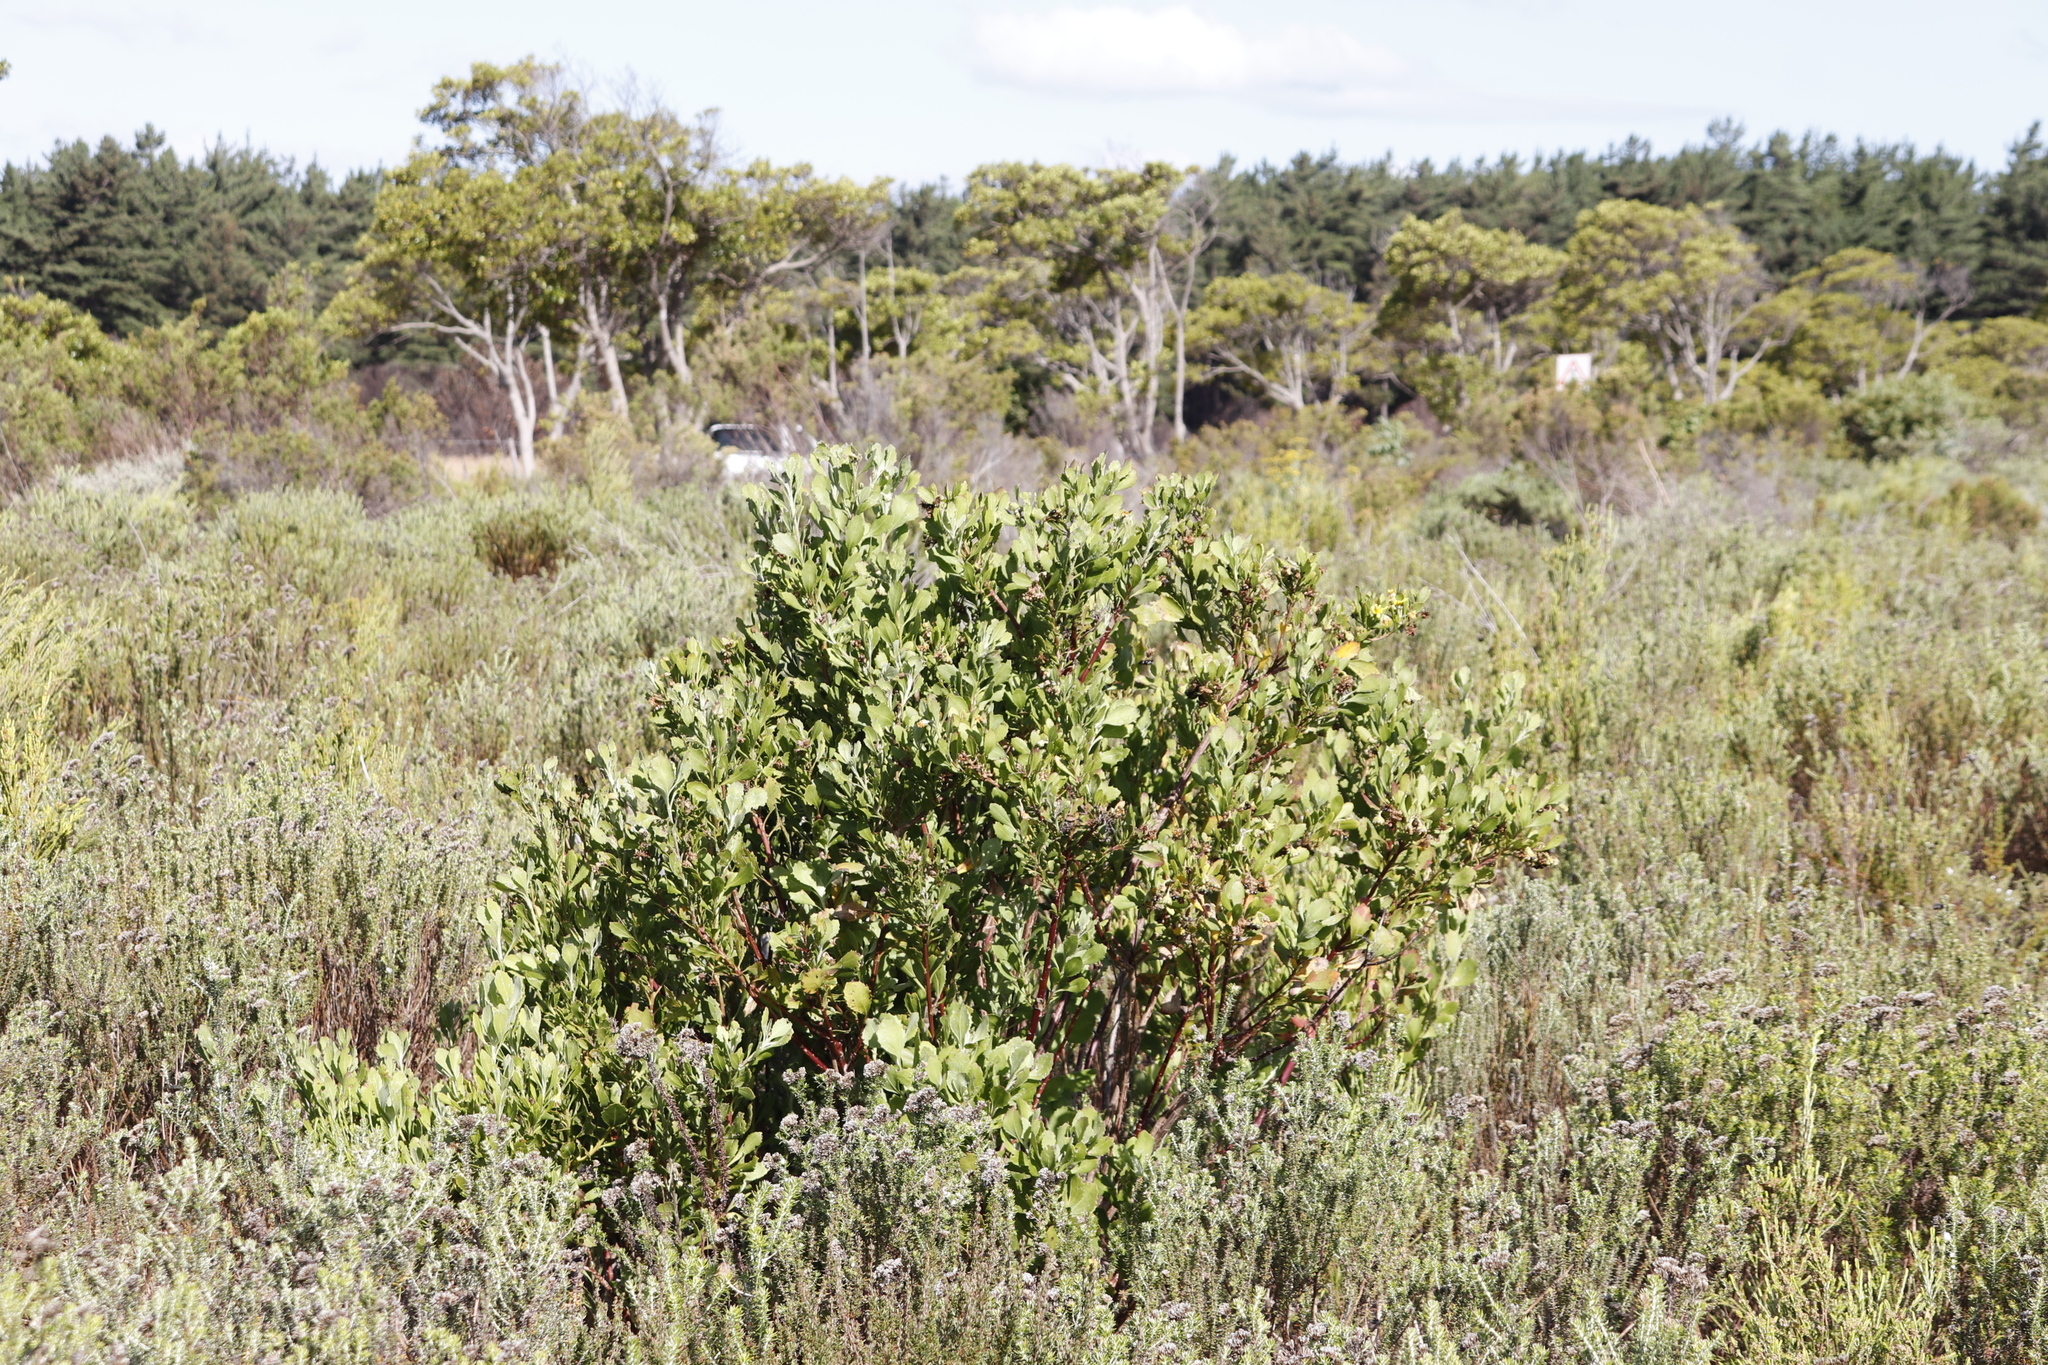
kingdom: Plantae
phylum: Tracheophyta
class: Magnoliopsida
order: Asterales
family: Asteraceae
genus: Osteospermum
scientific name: Osteospermum moniliferum
